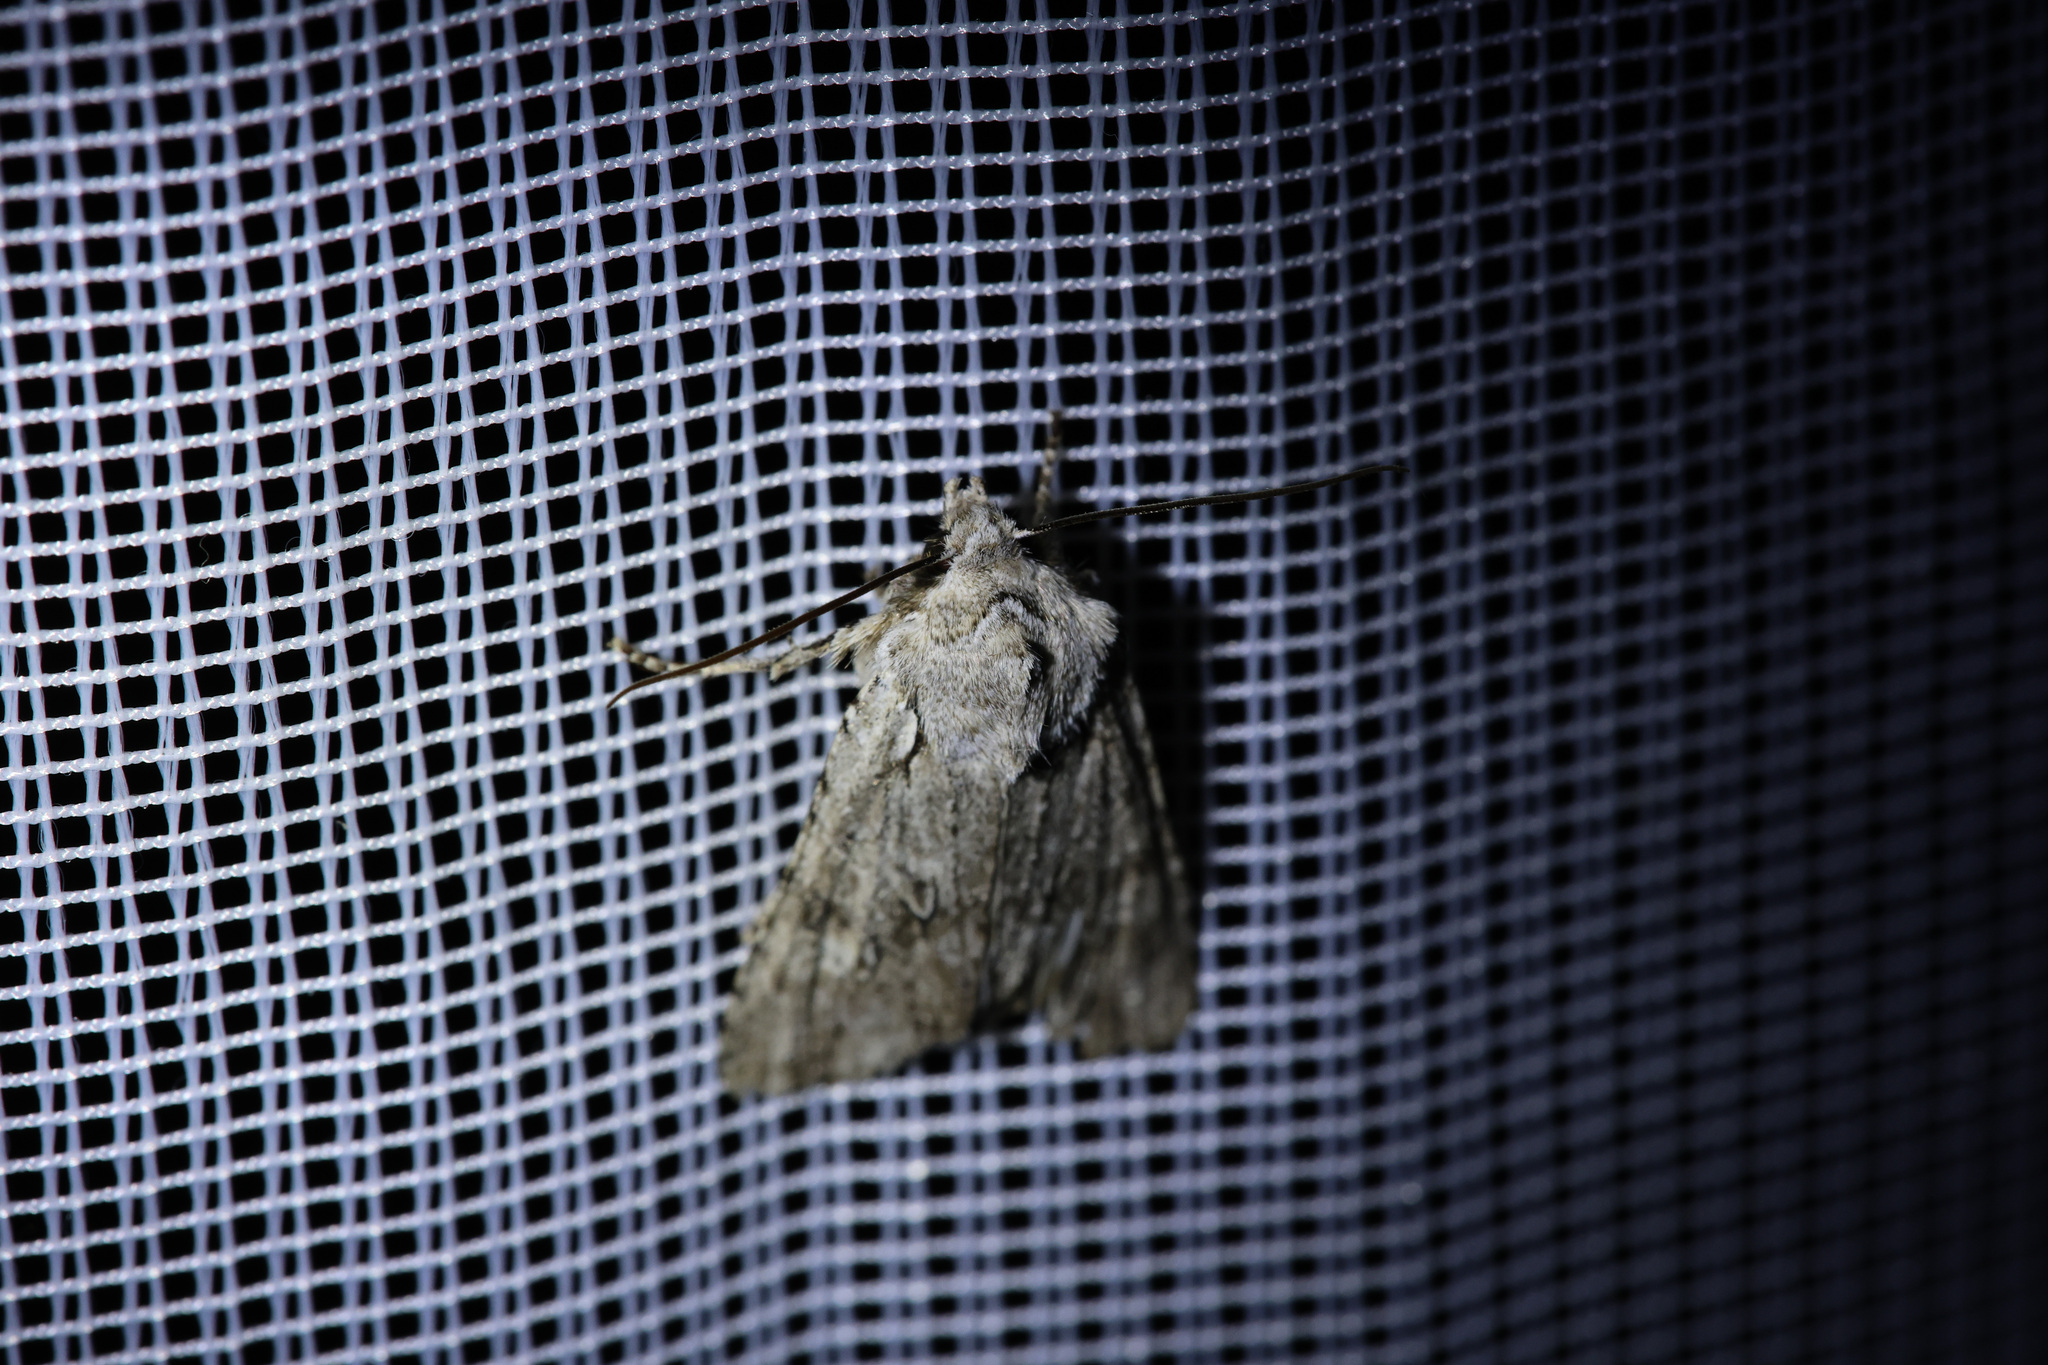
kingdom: Animalia
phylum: Arthropoda
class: Insecta
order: Lepidoptera
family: Noctuidae
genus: Lithophane
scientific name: Lithophane ornitopus
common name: Grey shoulder-knot
